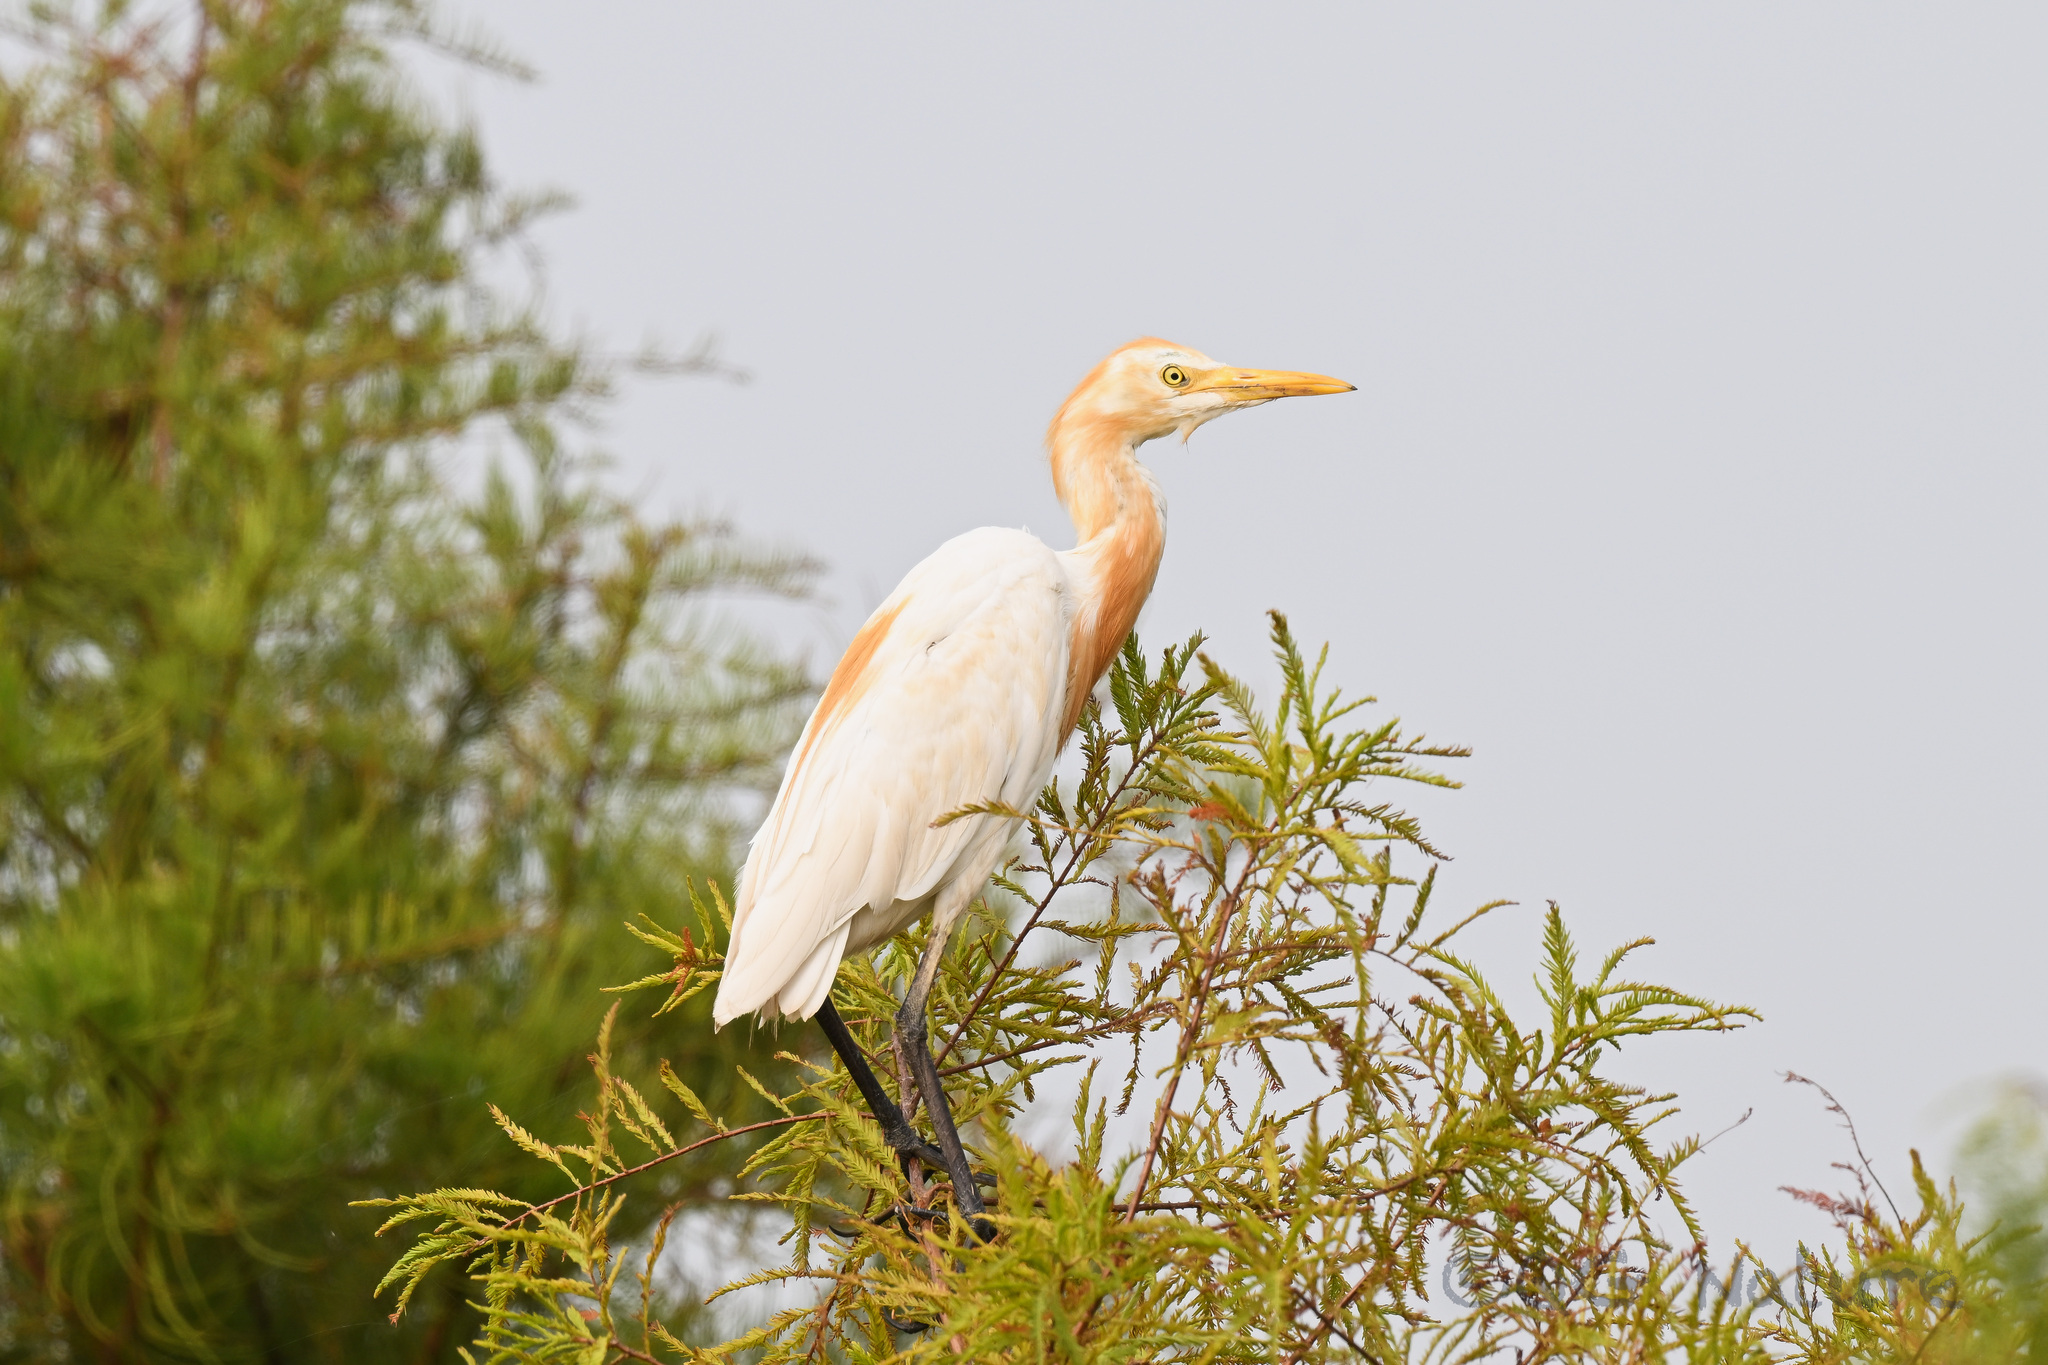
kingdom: Animalia
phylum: Chordata
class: Aves
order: Pelecaniformes
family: Ardeidae
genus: Bubulcus
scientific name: Bubulcus coromandus
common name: Eastern cattle egret
